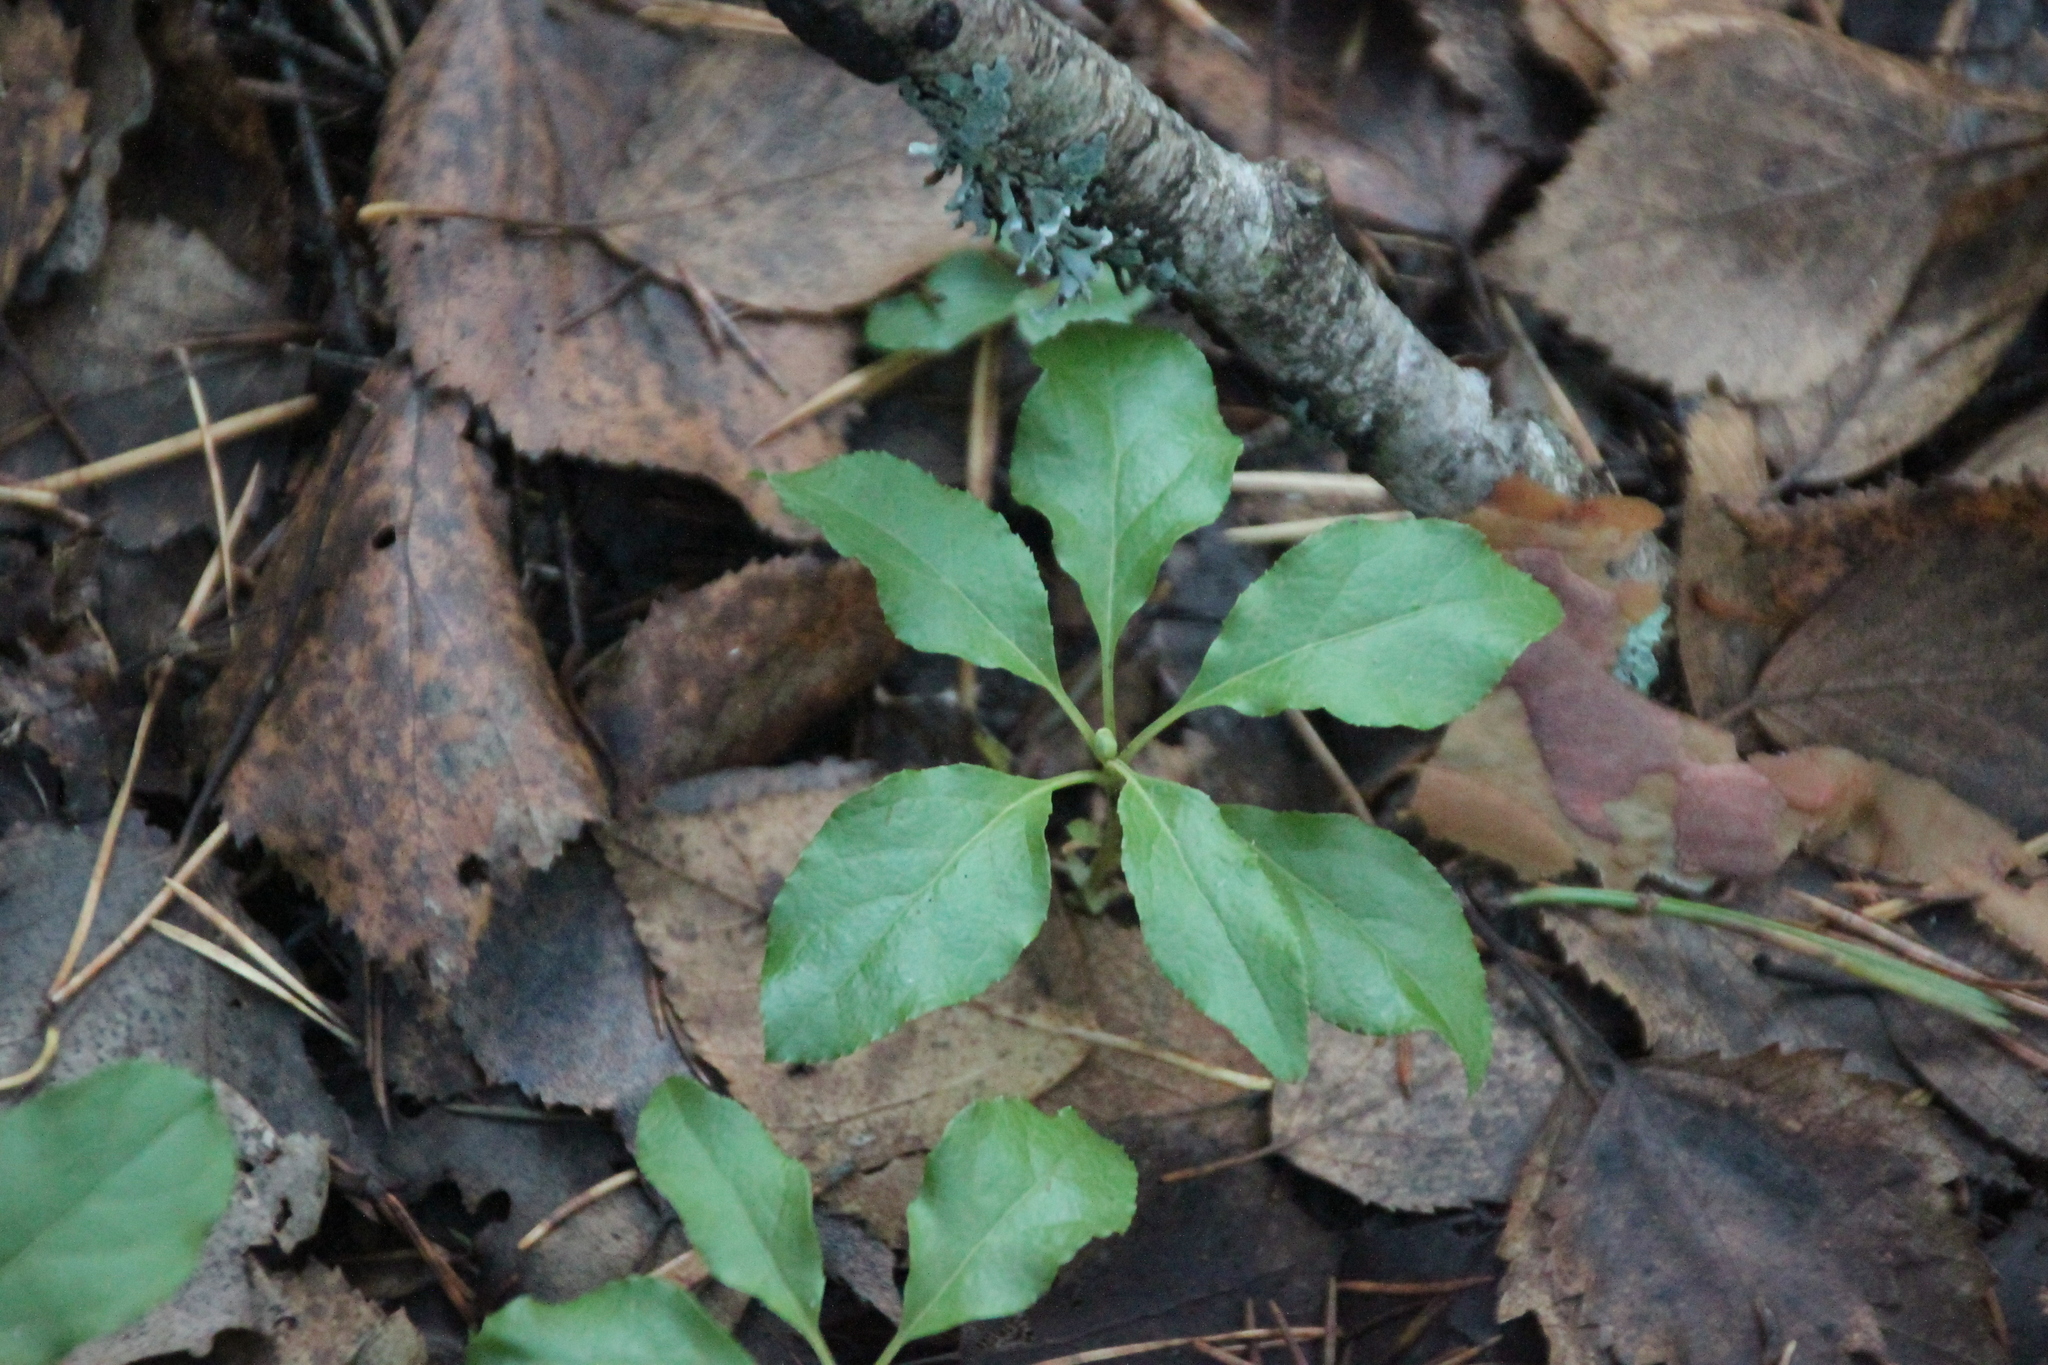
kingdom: Plantae
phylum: Tracheophyta
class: Magnoliopsida
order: Ericales
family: Ericaceae
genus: Orthilia
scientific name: Orthilia secunda
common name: One-sided orthilia
